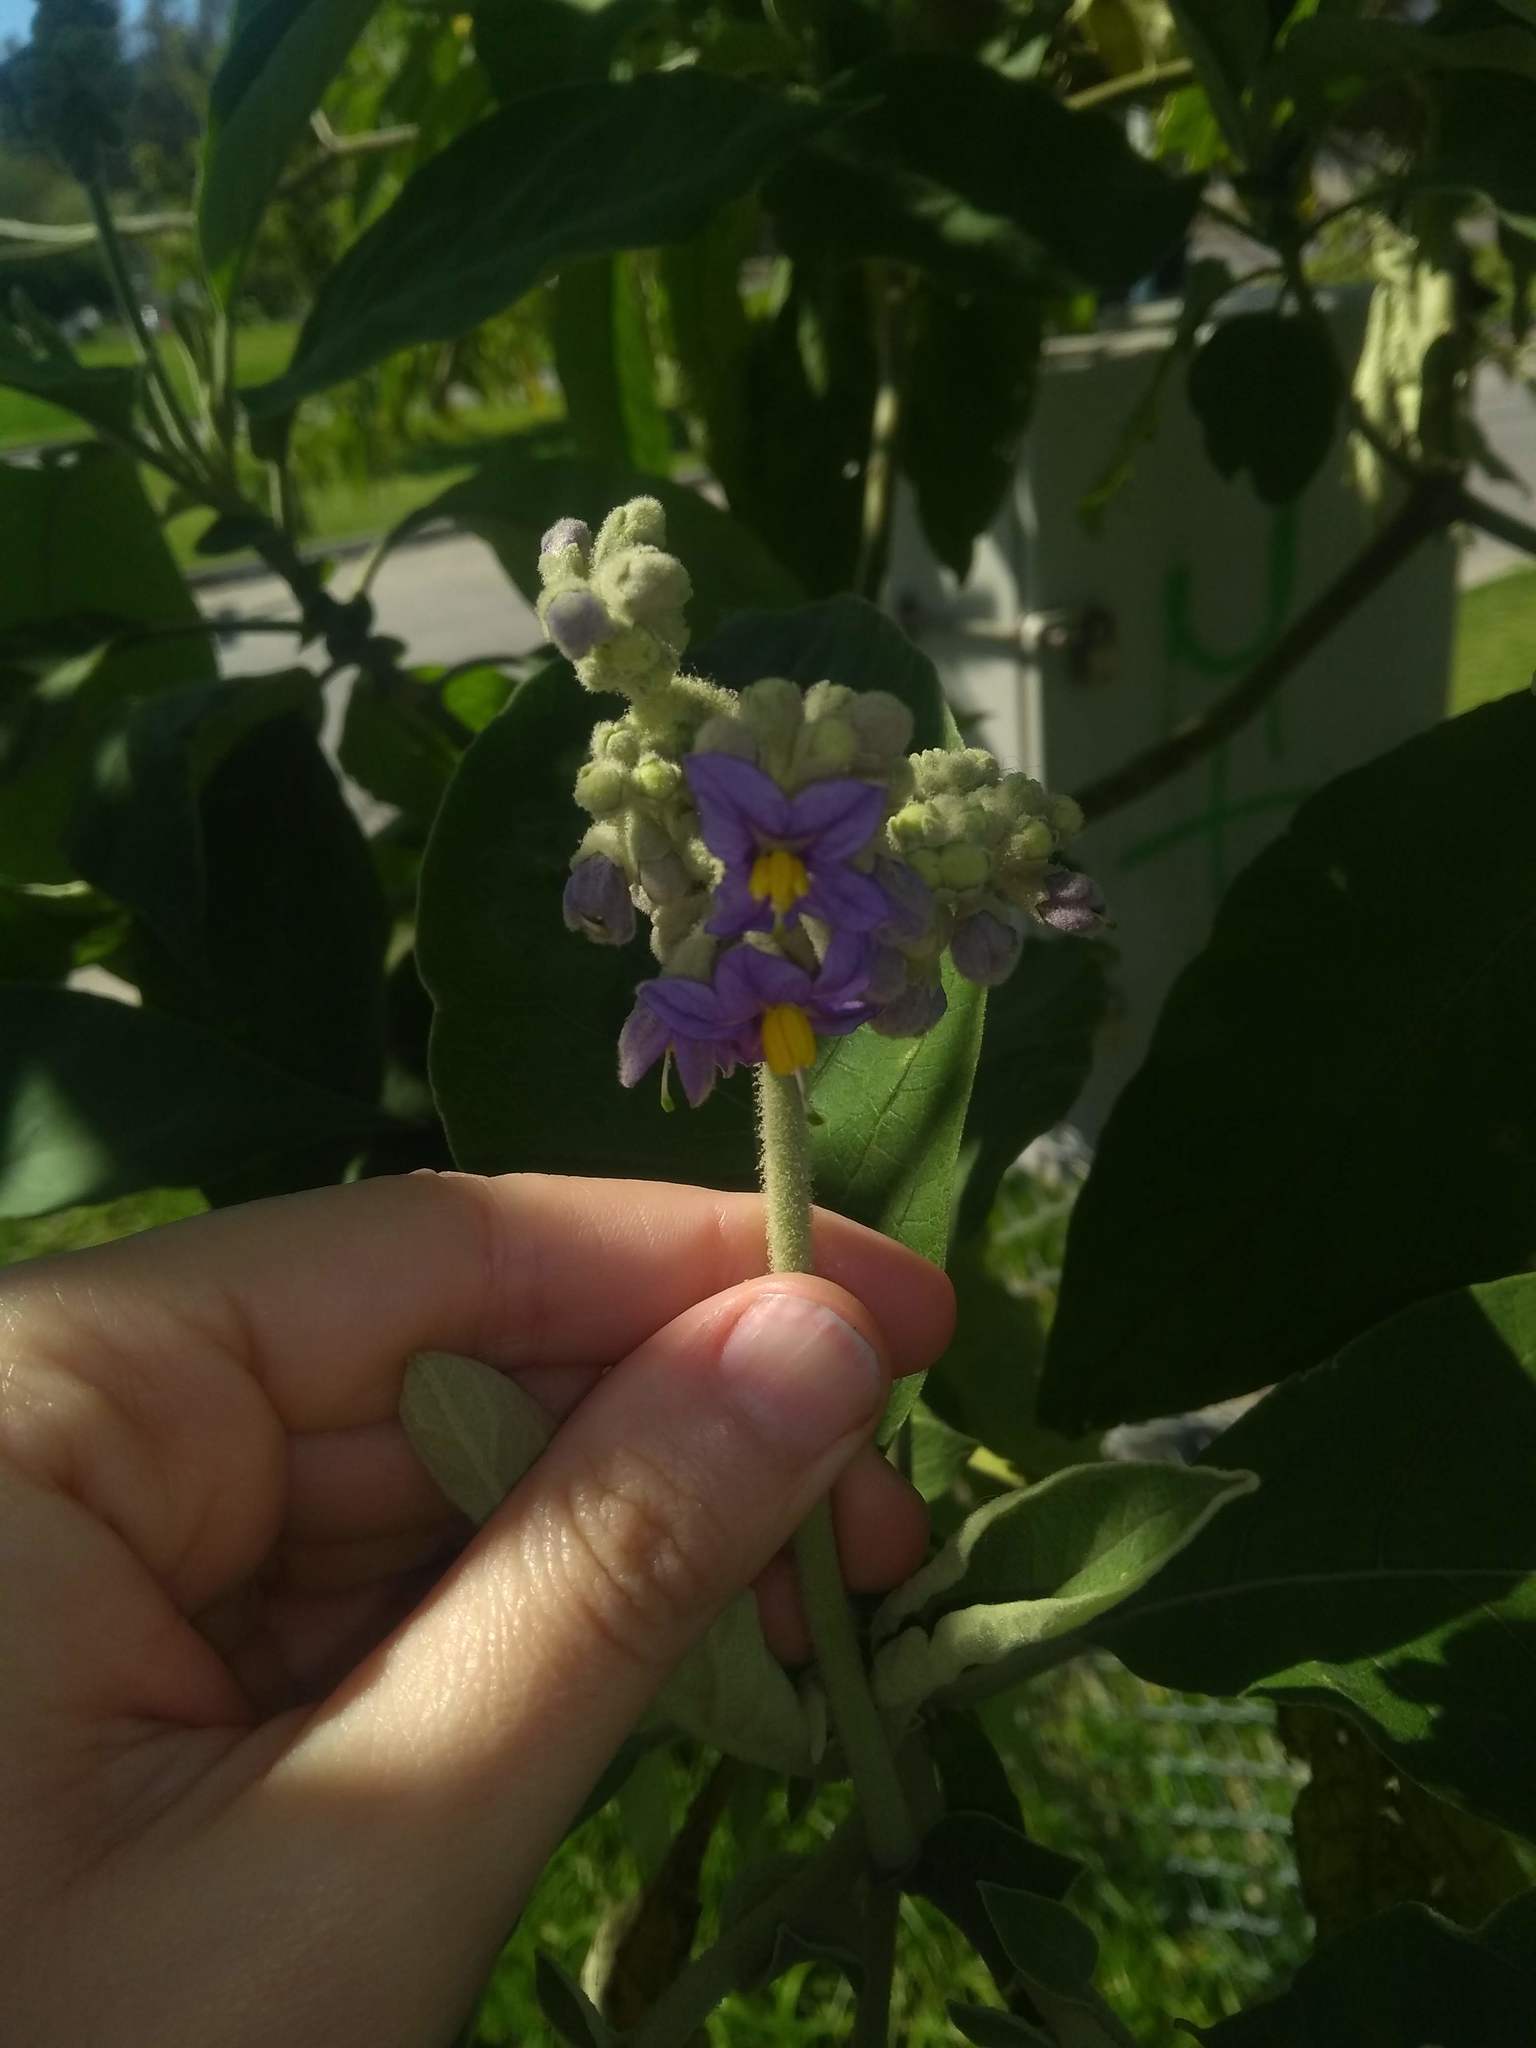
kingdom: Plantae
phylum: Tracheophyta
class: Magnoliopsida
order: Solanales
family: Solanaceae
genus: Solanum
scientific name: Solanum granulosoleprosum
